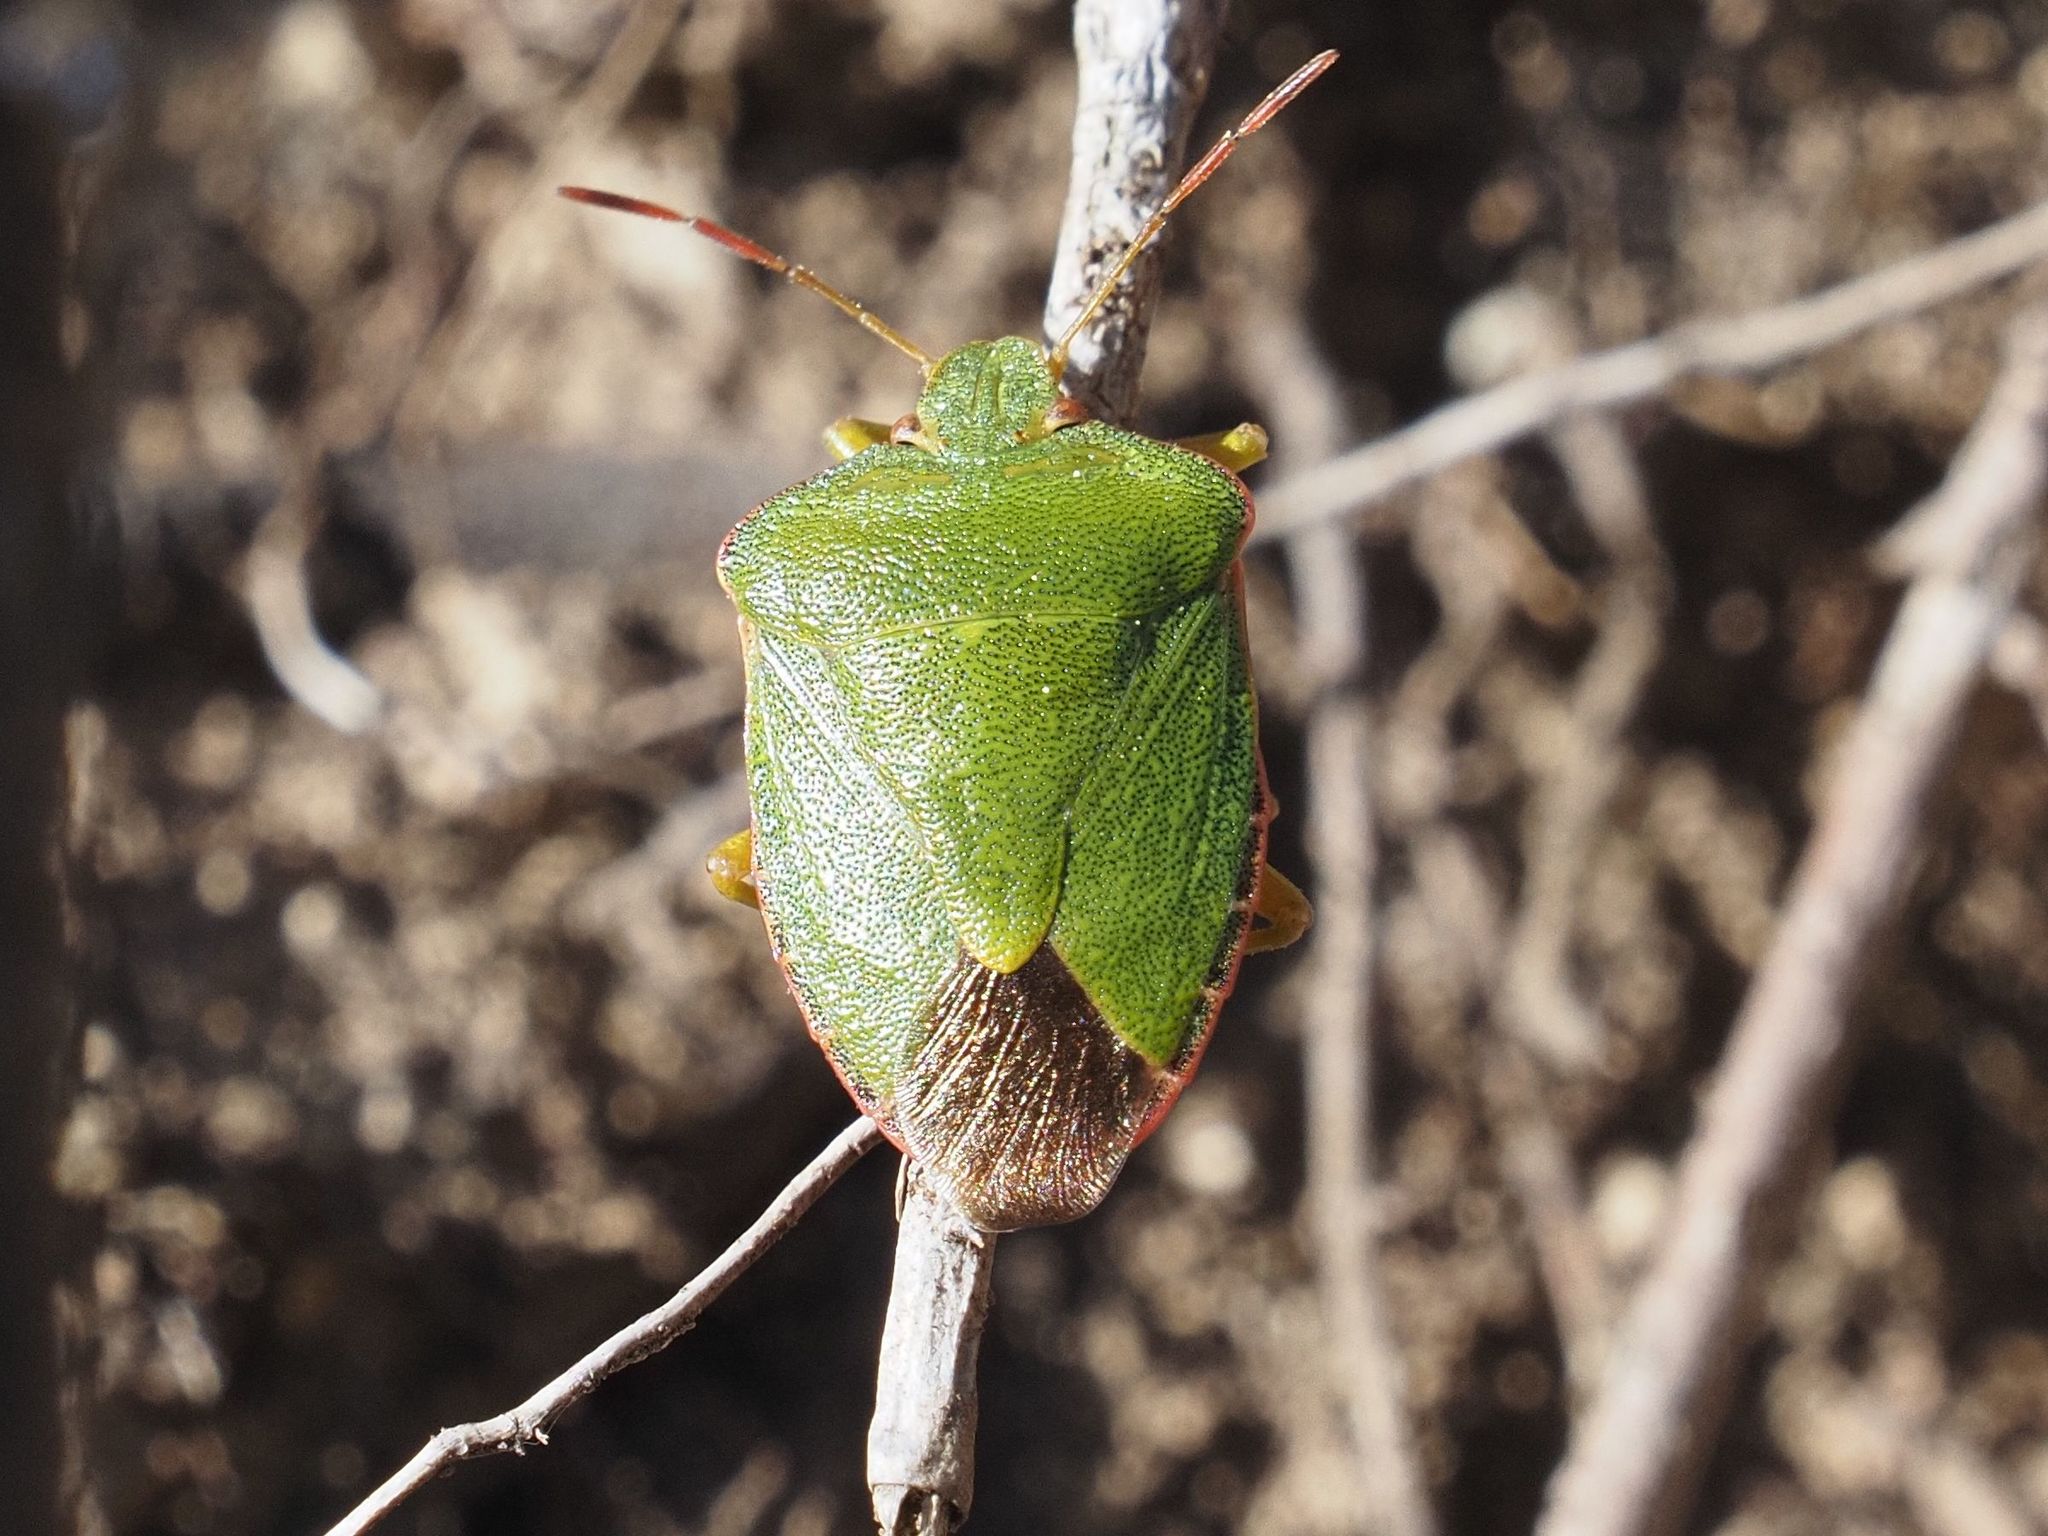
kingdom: Animalia
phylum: Arthropoda
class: Insecta
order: Hemiptera
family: Pentatomidae
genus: Palomena
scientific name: Palomena prasina
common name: Green shieldbug
